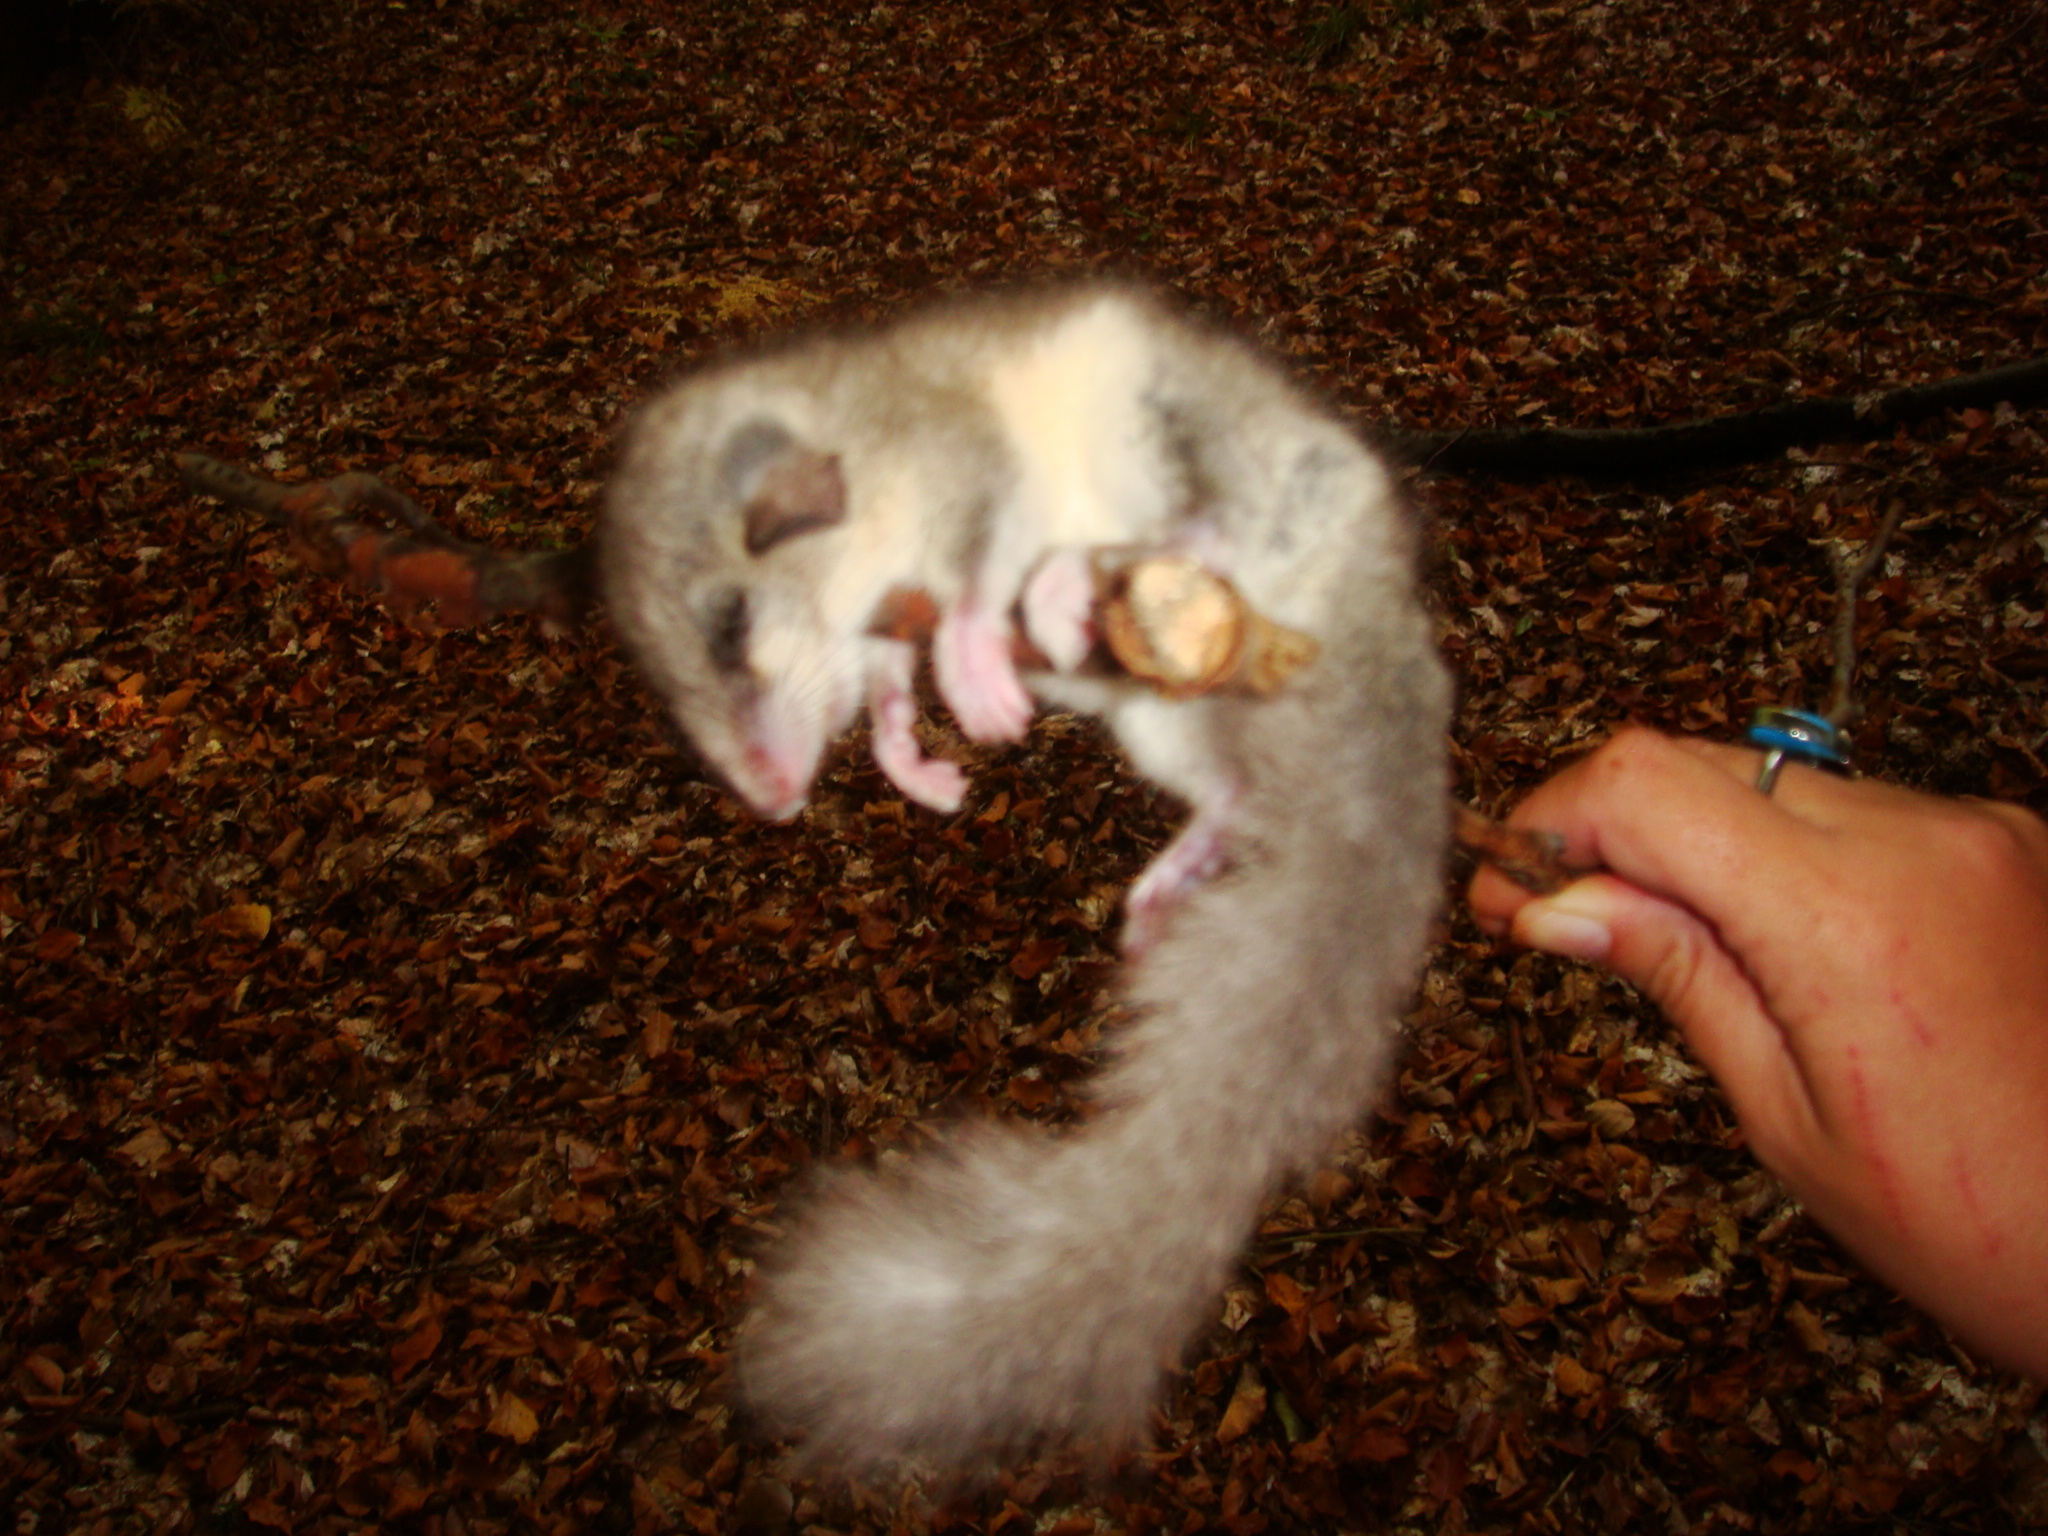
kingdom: Animalia
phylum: Chordata
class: Mammalia
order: Rodentia
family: Gliridae
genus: Glis
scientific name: Glis glis
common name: Fat dormouse
